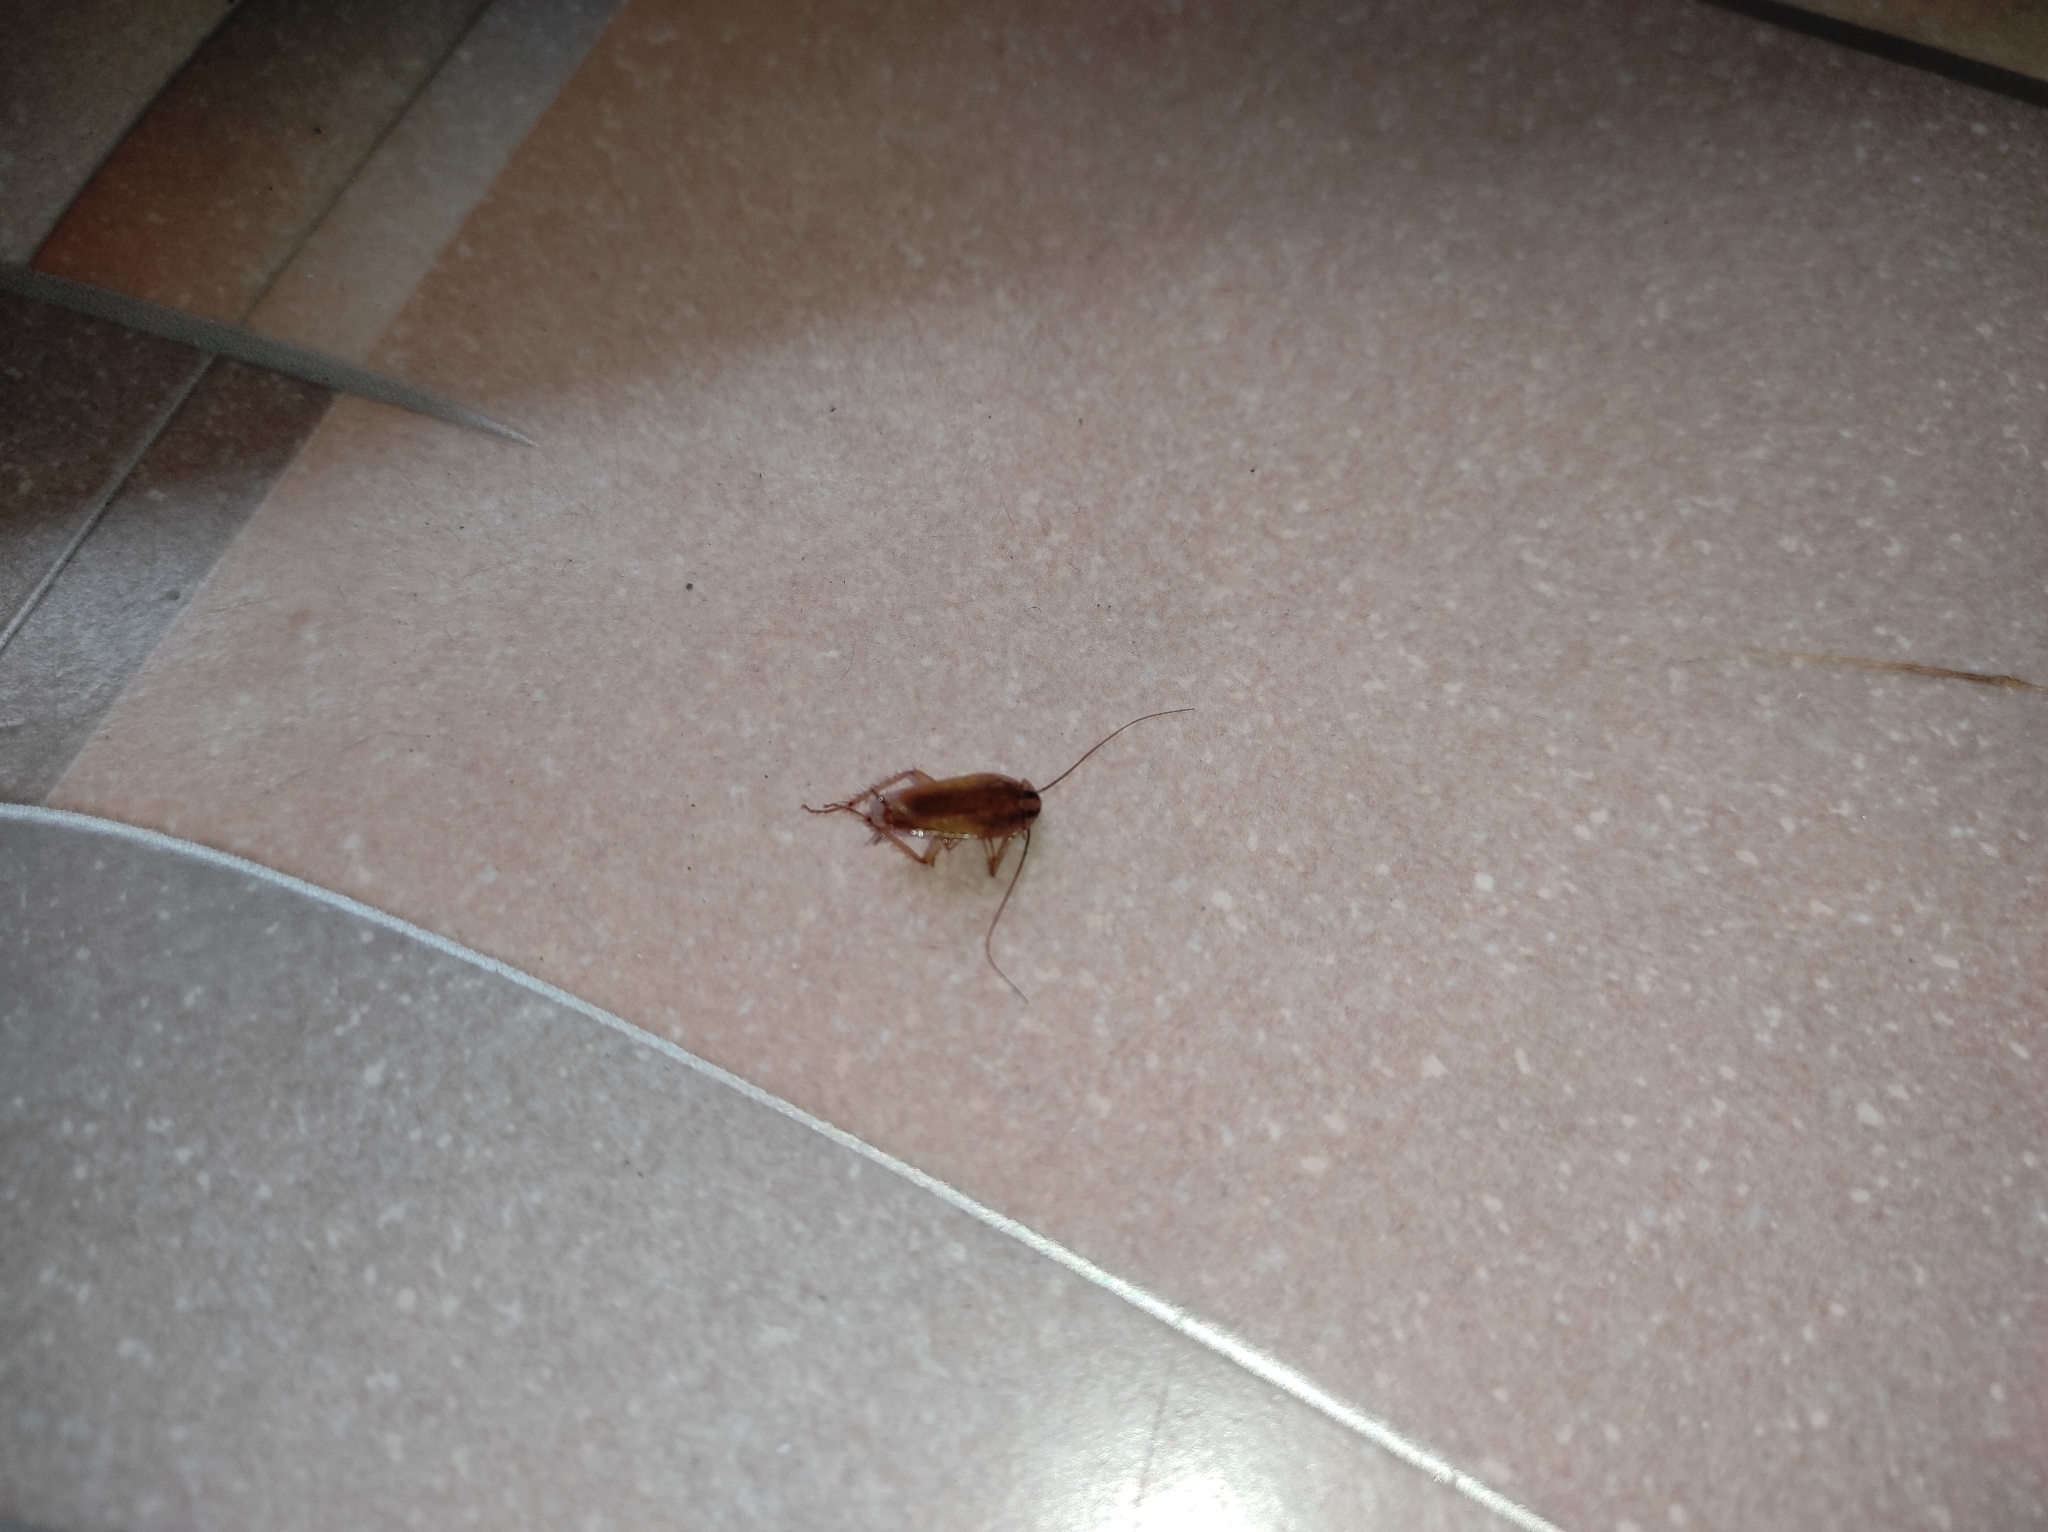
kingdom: Animalia
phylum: Arthropoda
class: Insecta
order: Blattodea
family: Ectobiidae
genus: Blattella
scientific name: Blattella germanica
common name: German cockroach
